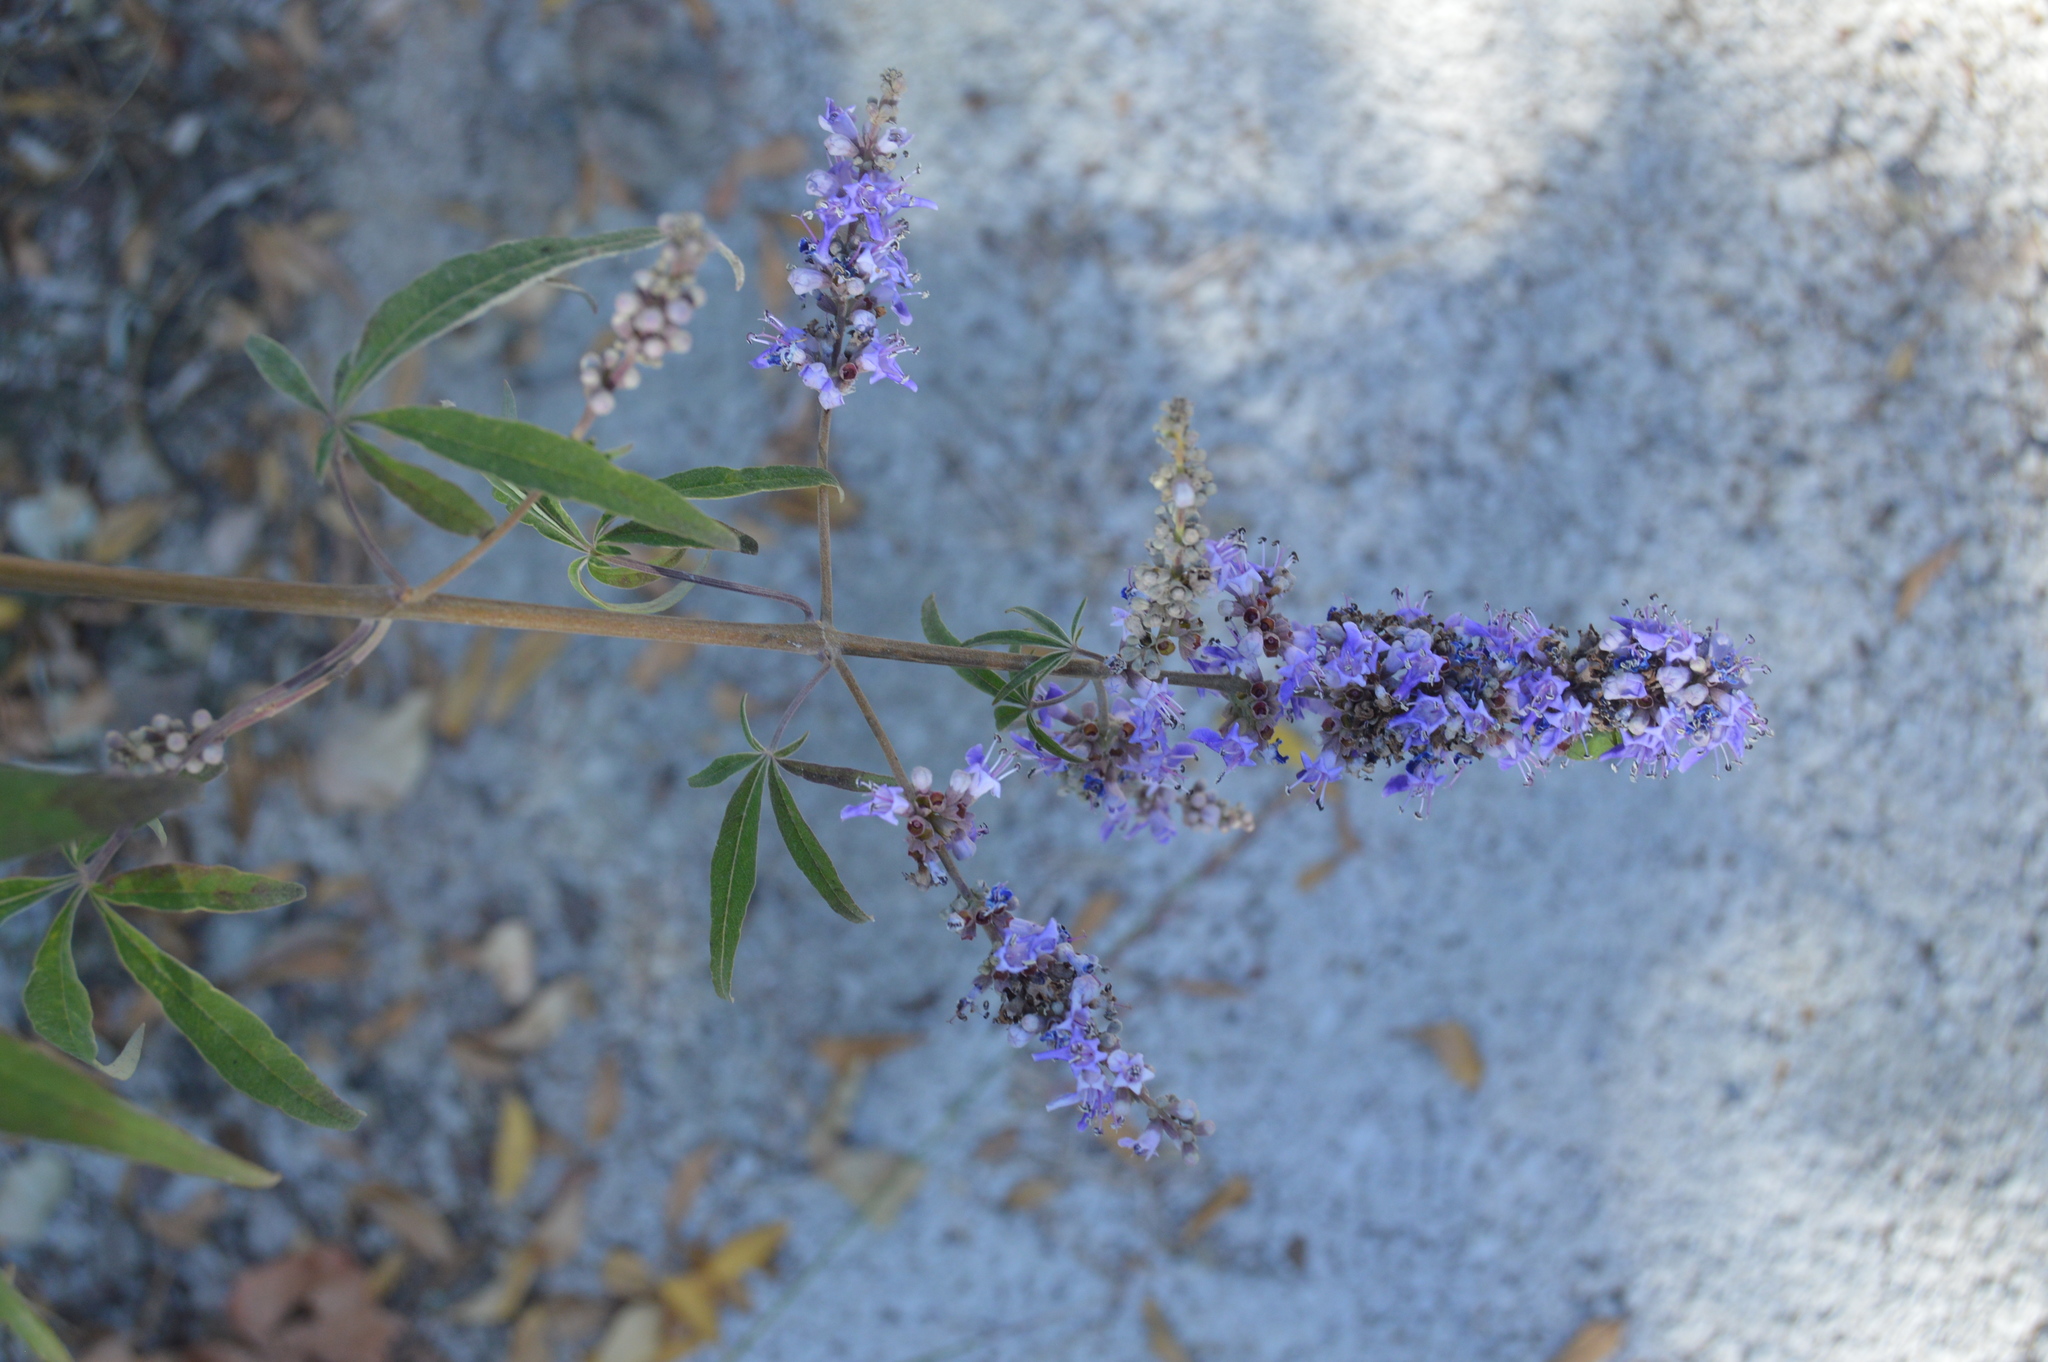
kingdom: Plantae
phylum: Tracheophyta
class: Magnoliopsida
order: Lamiales
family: Lamiaceae
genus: Vitex
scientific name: Vitex agnus-castus
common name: Chasteberry
